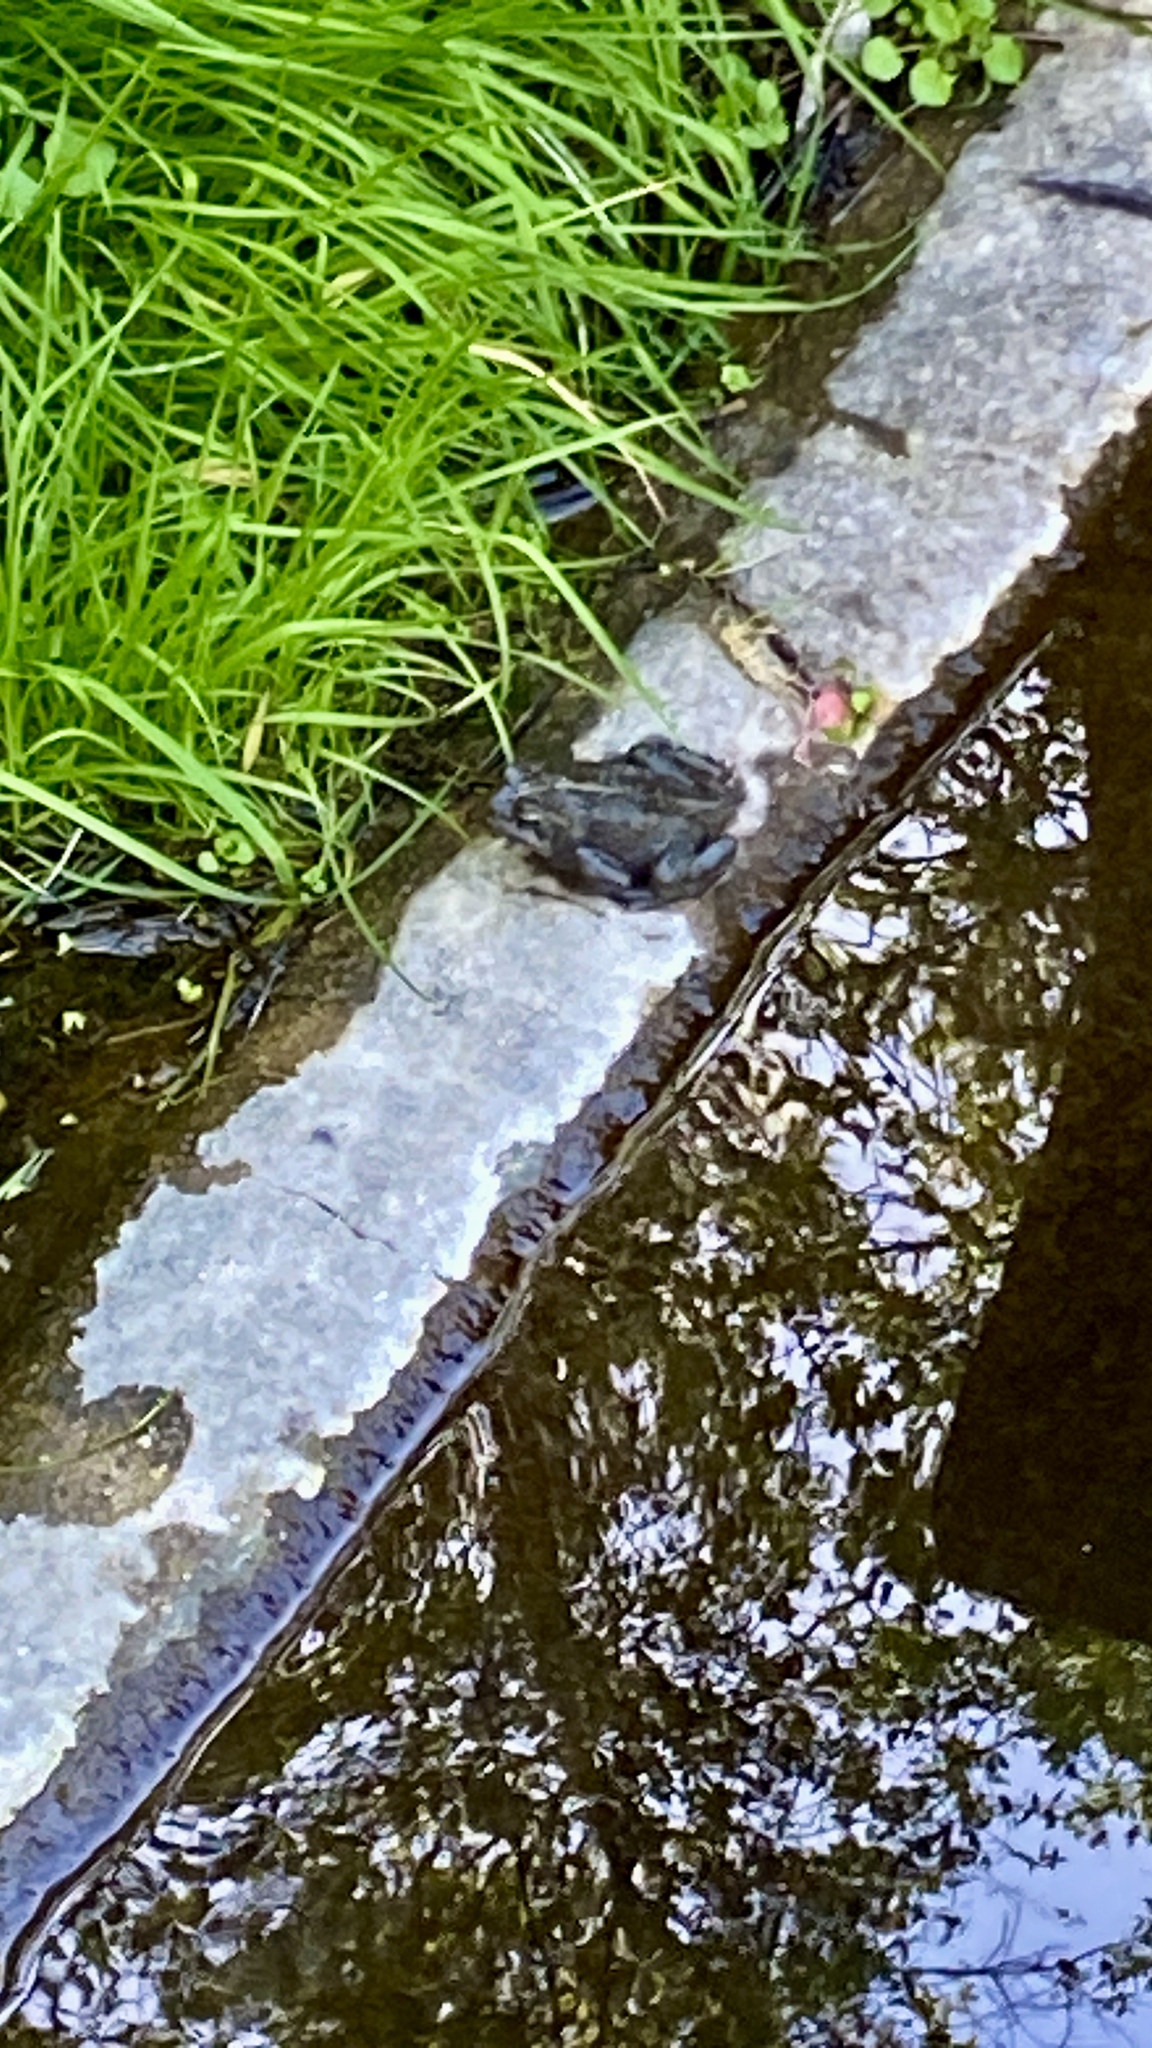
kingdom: Animalia
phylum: Chordata
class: Amphibia
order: Anura
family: Bufonidae
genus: Anaxyrus
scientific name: Anaxyrus boreas
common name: Western toad
